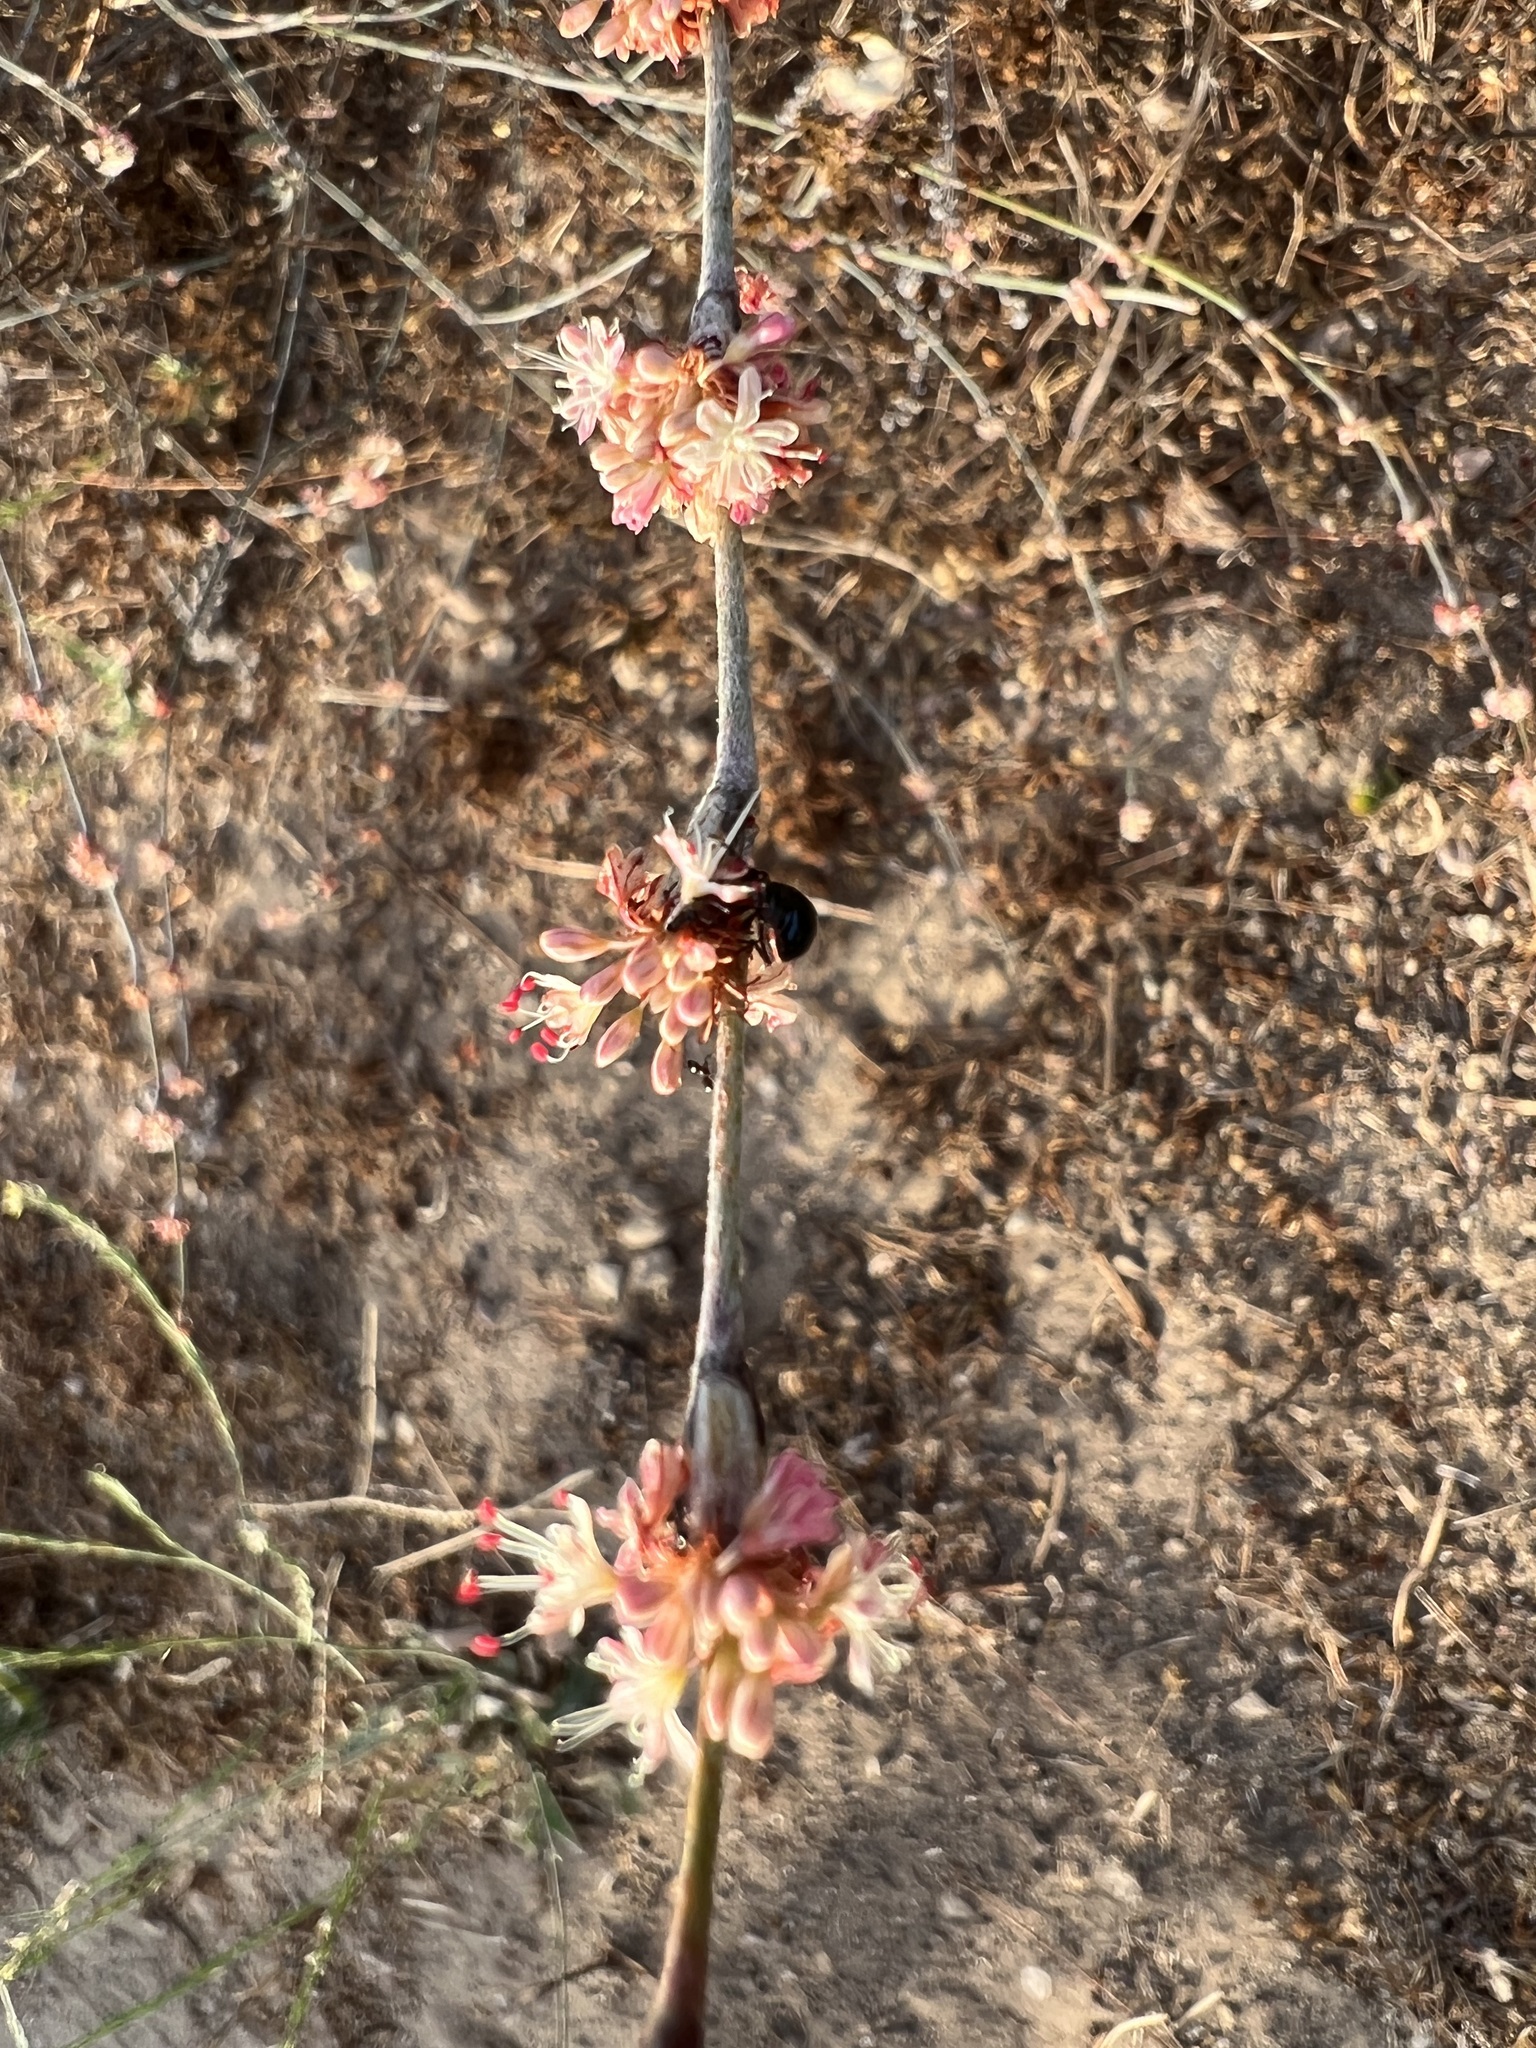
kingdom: Plantae
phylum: Tracheophyta
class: Magnoliopsida
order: Caryophyllales
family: Polygonaceae
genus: Eriogonum
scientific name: Eriogonum elongatum
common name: Long-stem wild buckwheat
